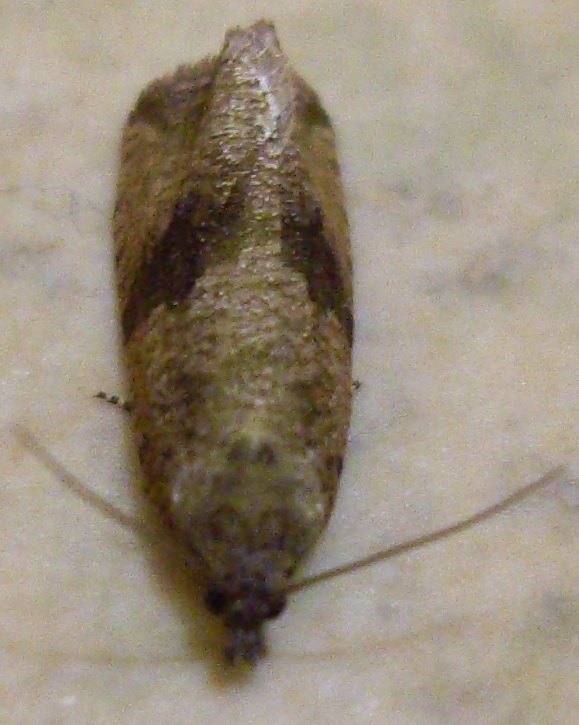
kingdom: Animalia
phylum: Arthropoda
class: Insecta
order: Lepidoptera
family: Tortricidae
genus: Celypha
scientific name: Celypha striana
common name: Barred marble
